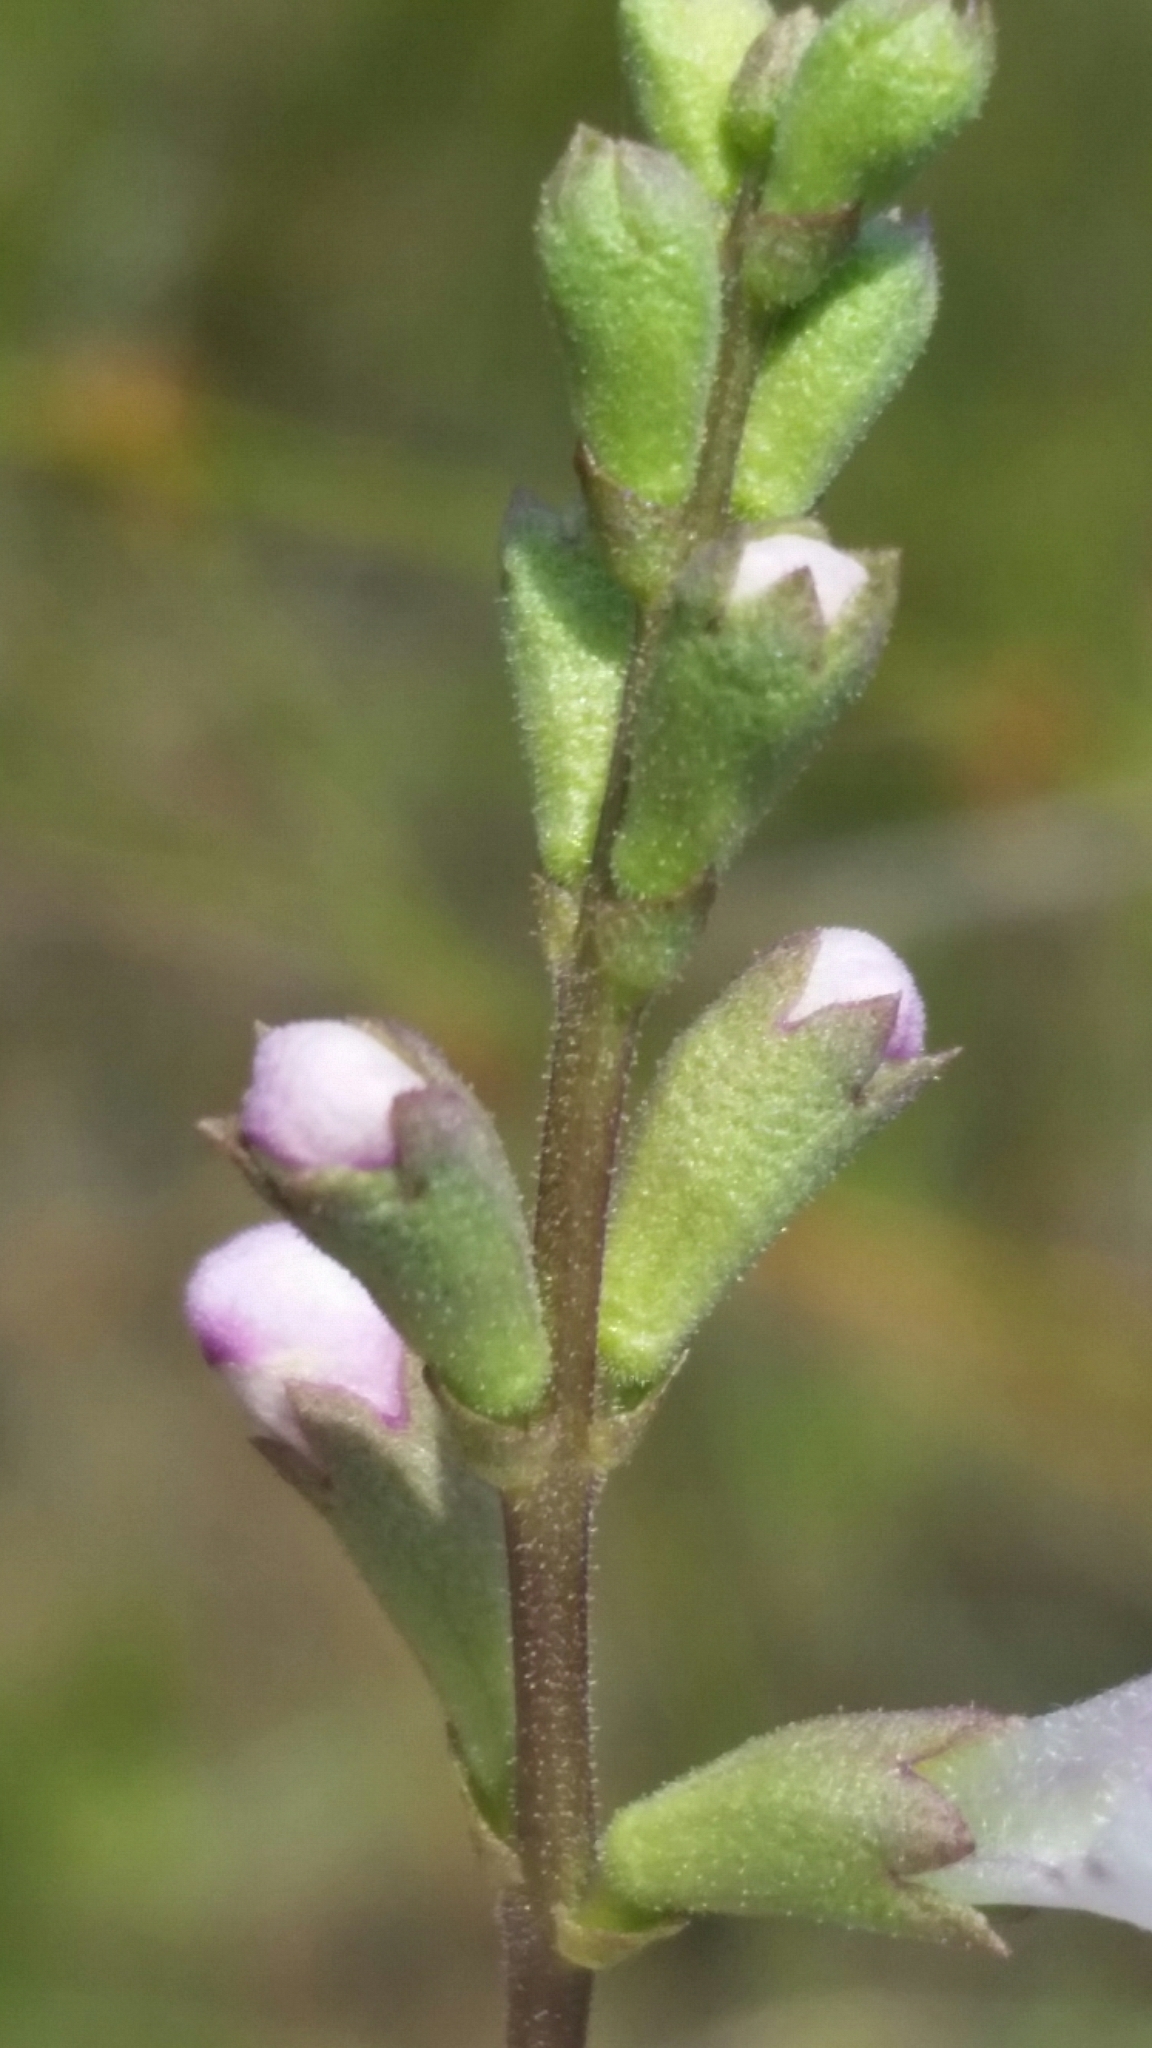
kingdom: Plantae
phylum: Tracheophyta
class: Magnoliopsida
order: Lamiales
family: Lamiaceae
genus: Physostegia
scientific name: Physostegia godfreyi
